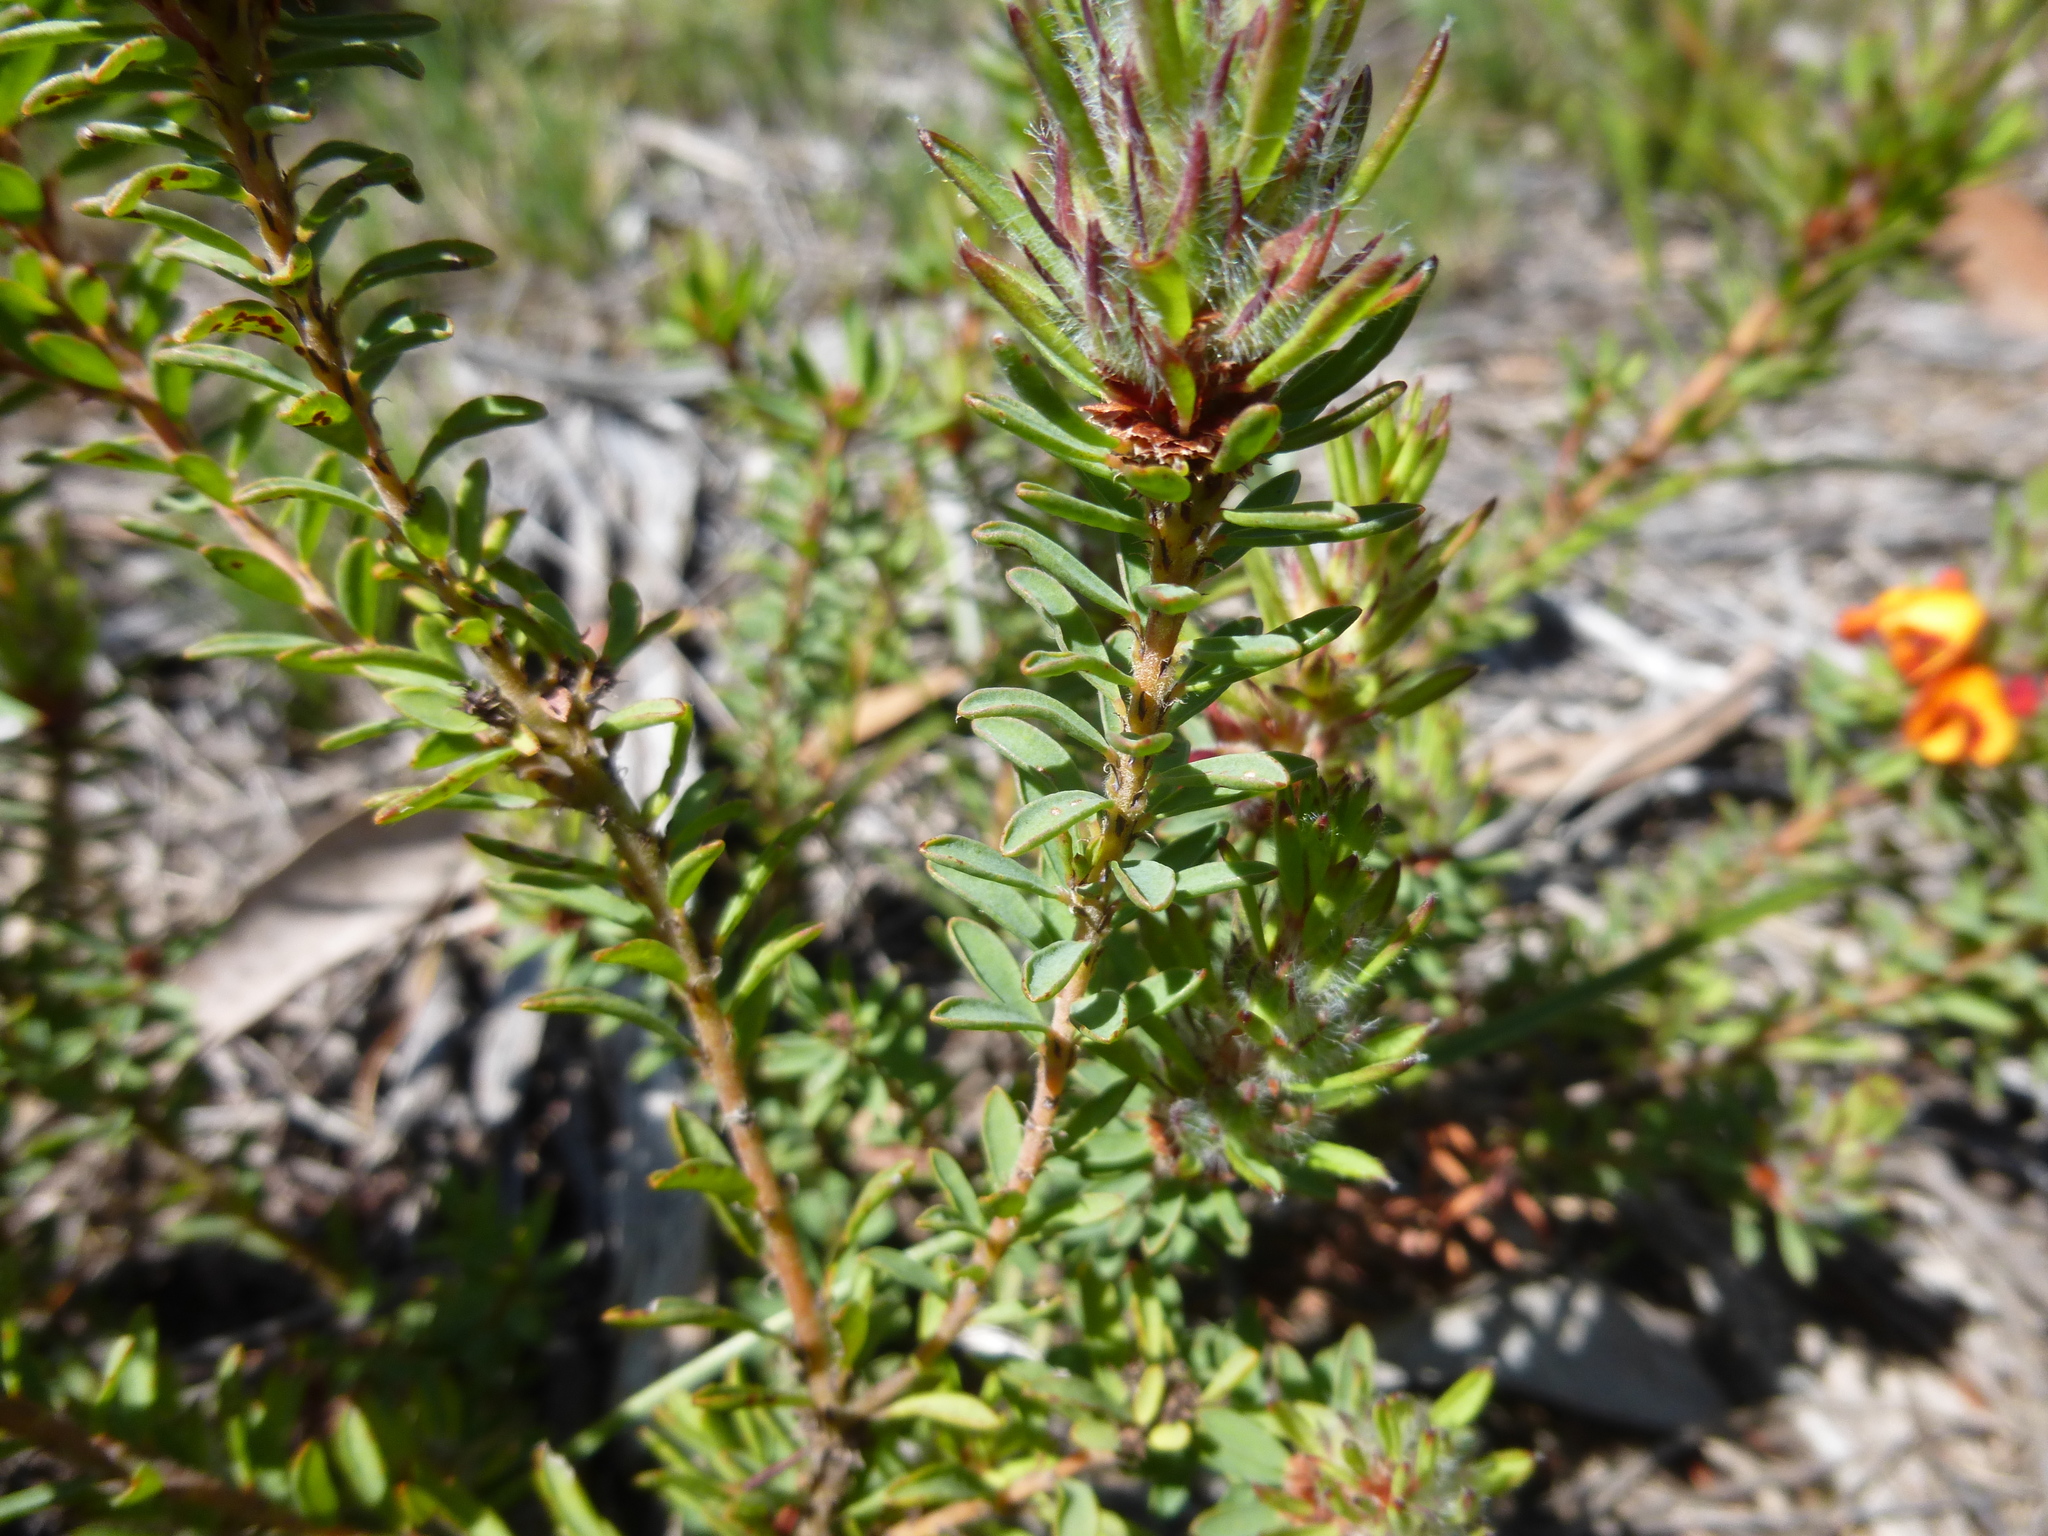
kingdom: Plantae
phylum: Tracheophyta
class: Magnoliopsida
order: Fabales
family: Fabaceae
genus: Pultenaea
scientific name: Pultenaea humilis
